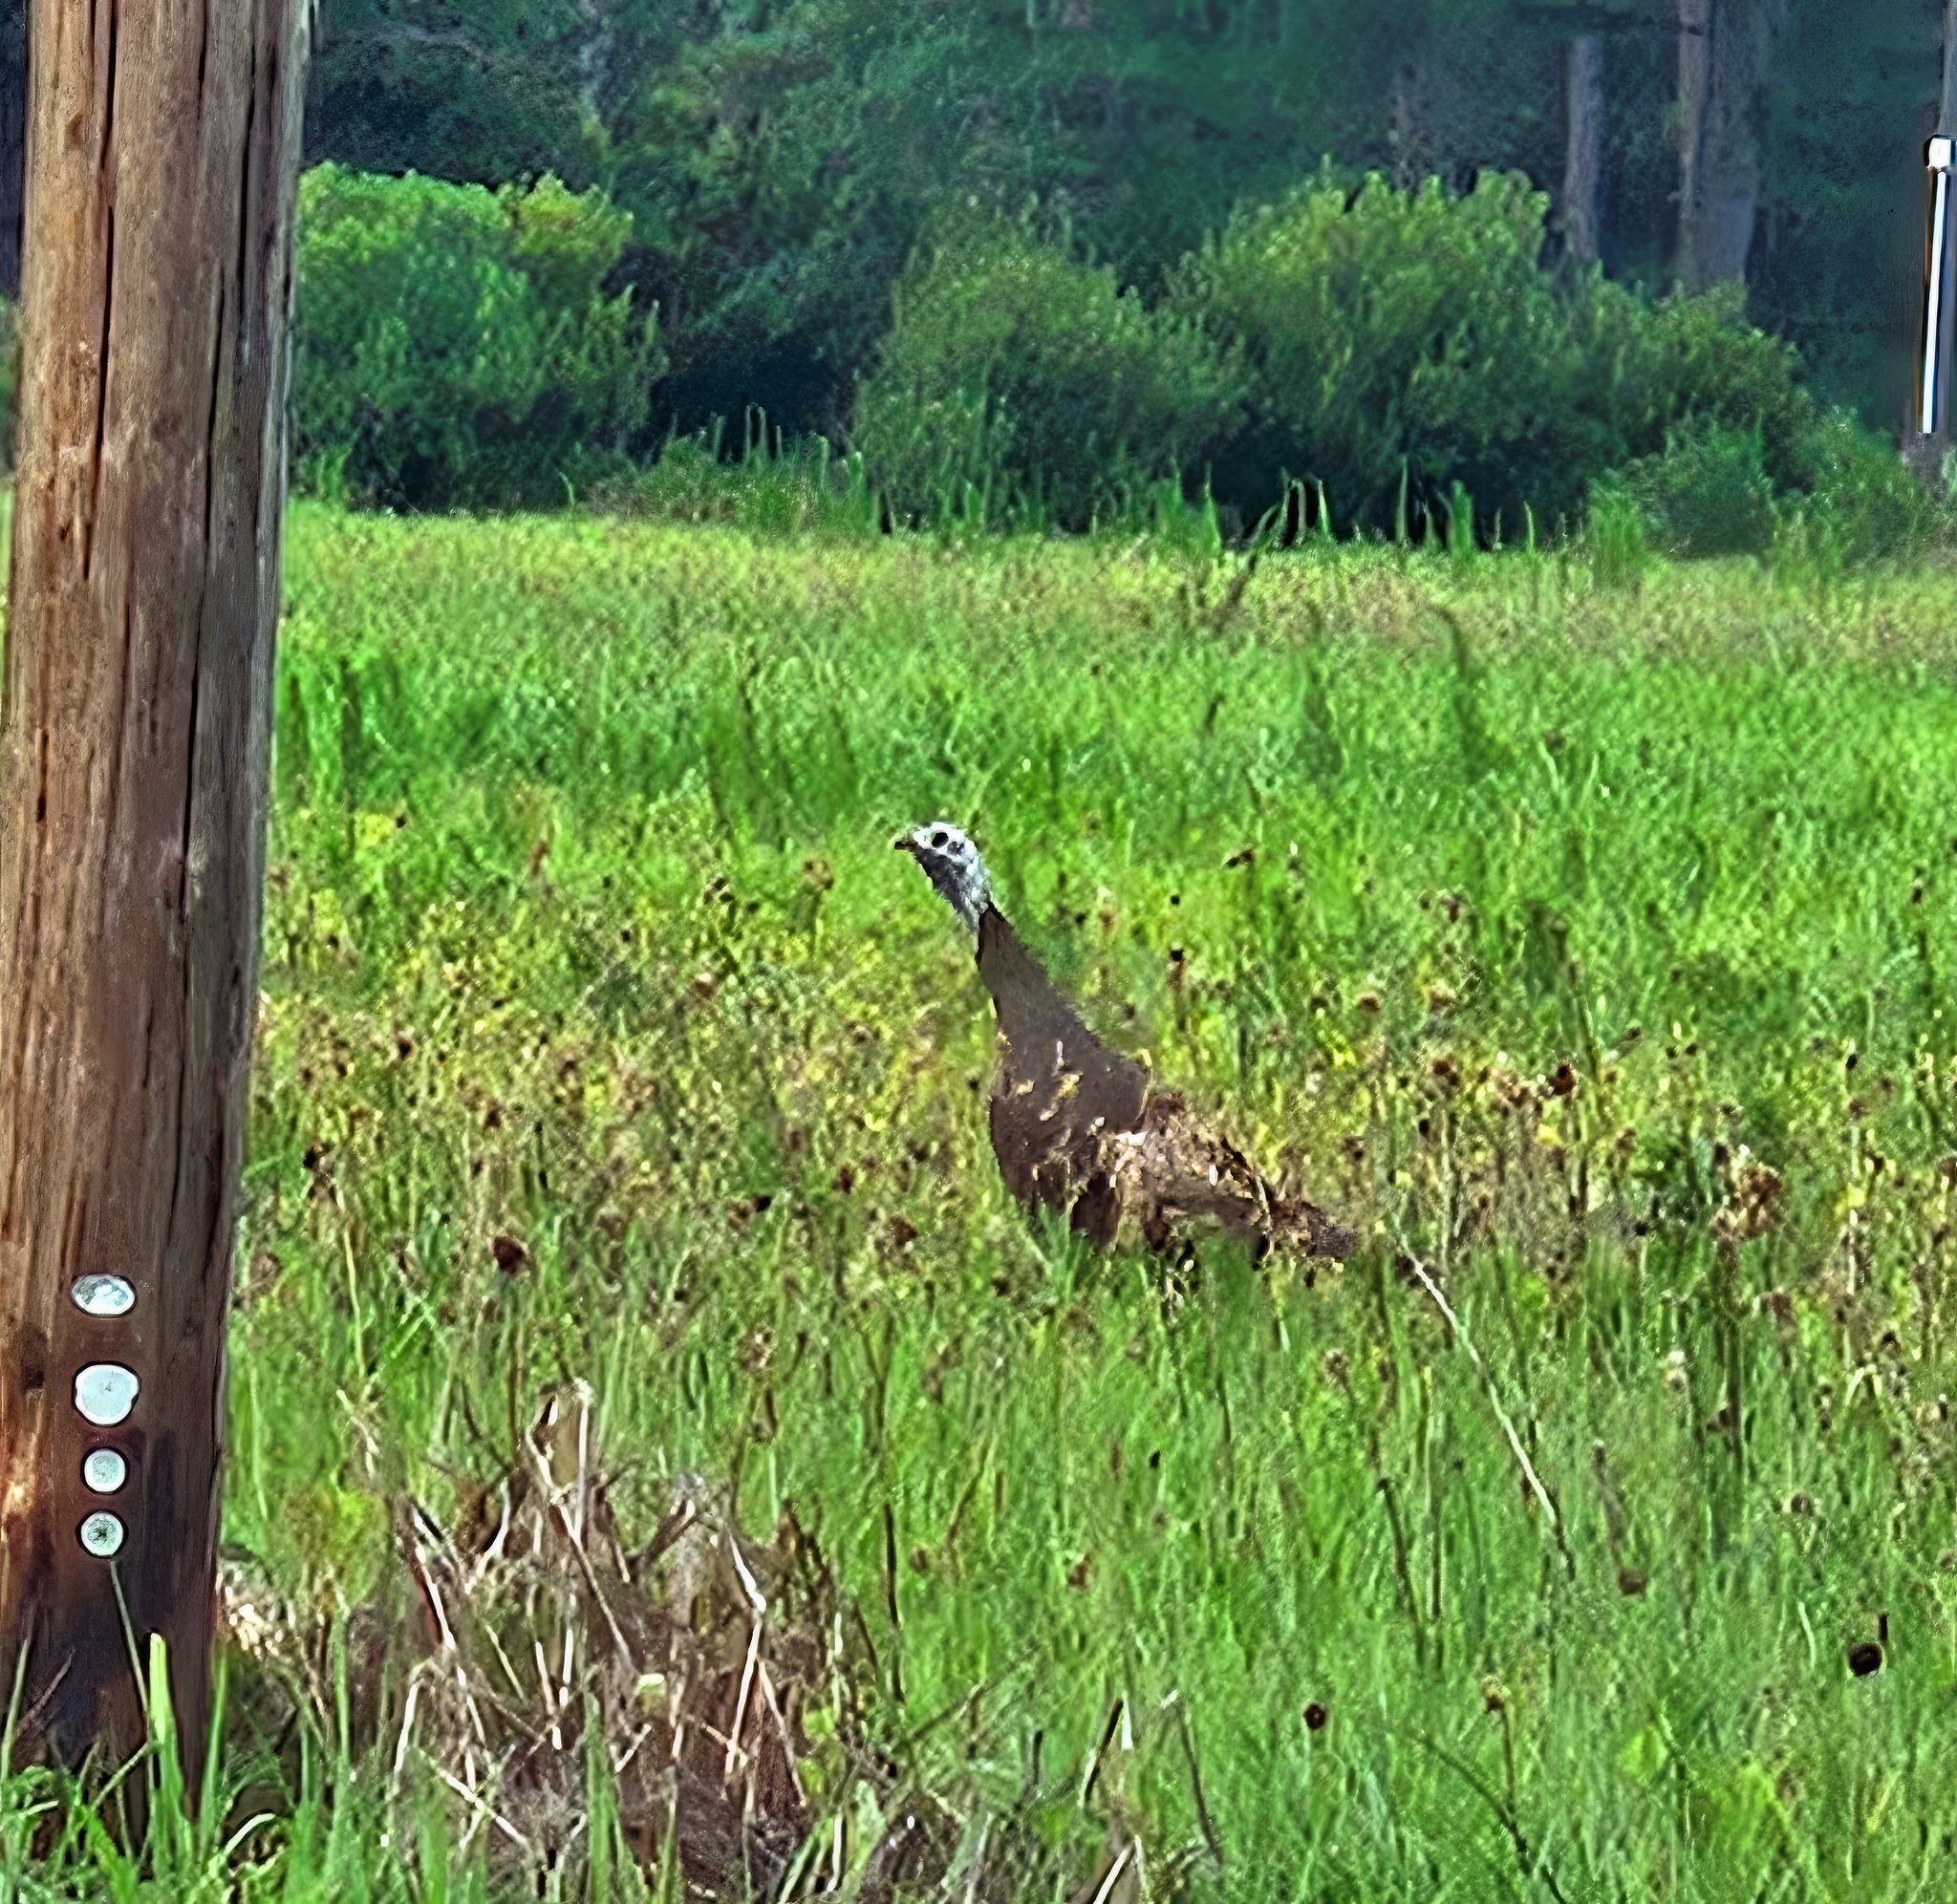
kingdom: Animalia
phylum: Chordata
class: Aves
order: Galliformes
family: Phasianidae
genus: Meleagris
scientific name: Meleagris gallopavo
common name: Wild turkey
